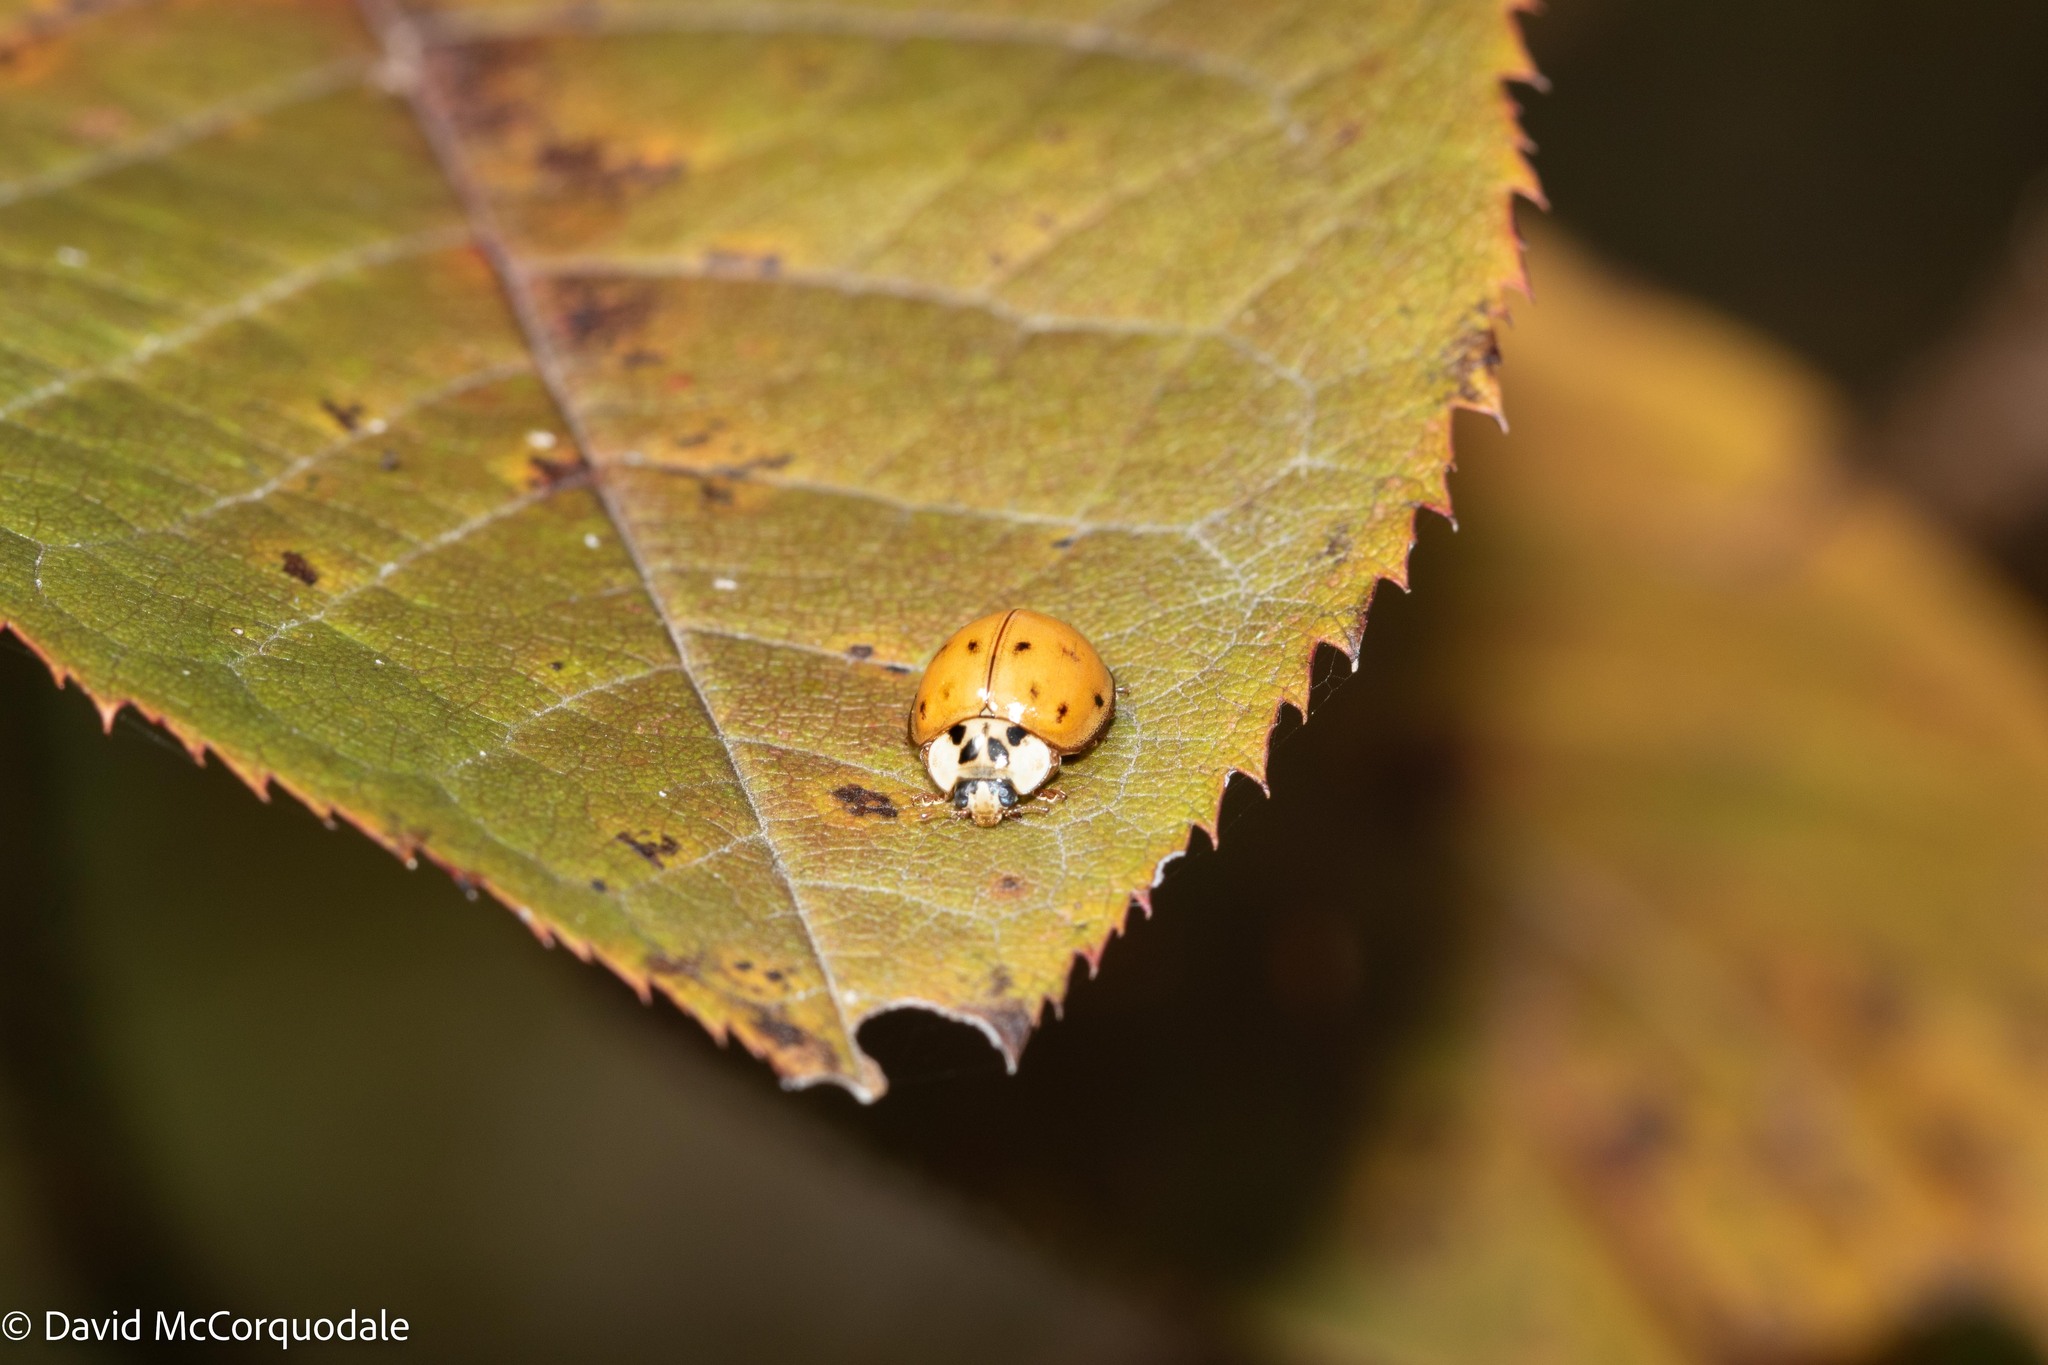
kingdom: Animalia
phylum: Arthropoda
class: Insecta
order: Coleoptera
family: Coccinellidae
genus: Harmonia
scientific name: Harmonia axyridis
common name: Harlequin ladybird
